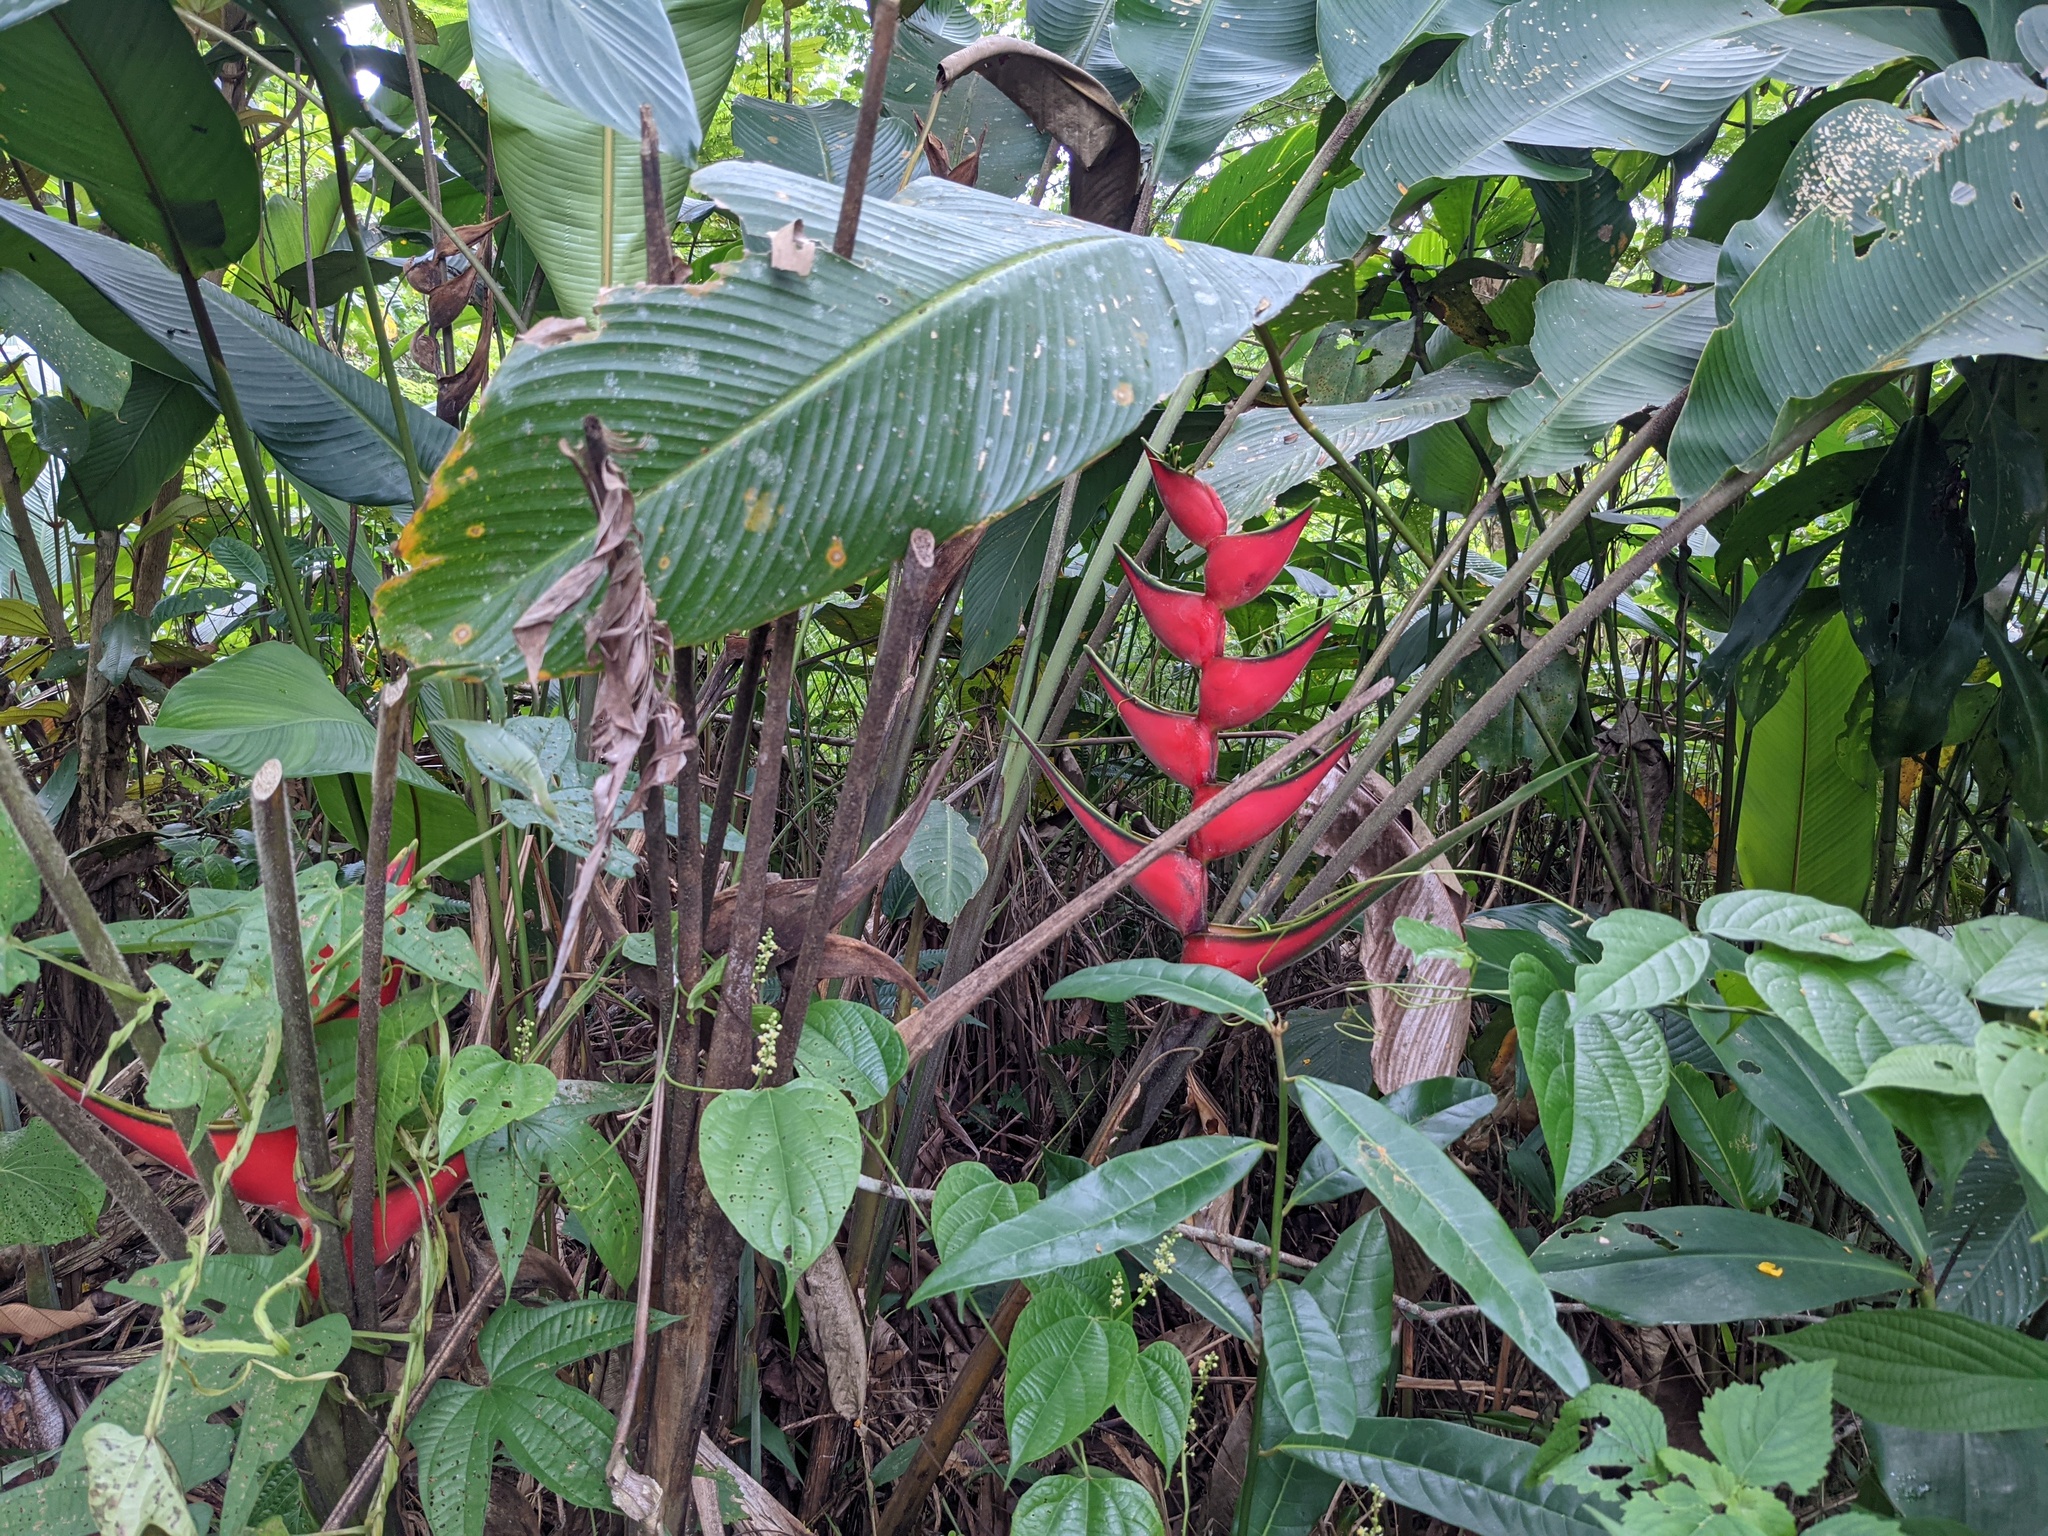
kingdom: Plantae
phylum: Tracheophyta
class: Liliopsida
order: Zingiberales
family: Heliconiaceae
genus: Heliconia
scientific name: Heliconia orthotricha
